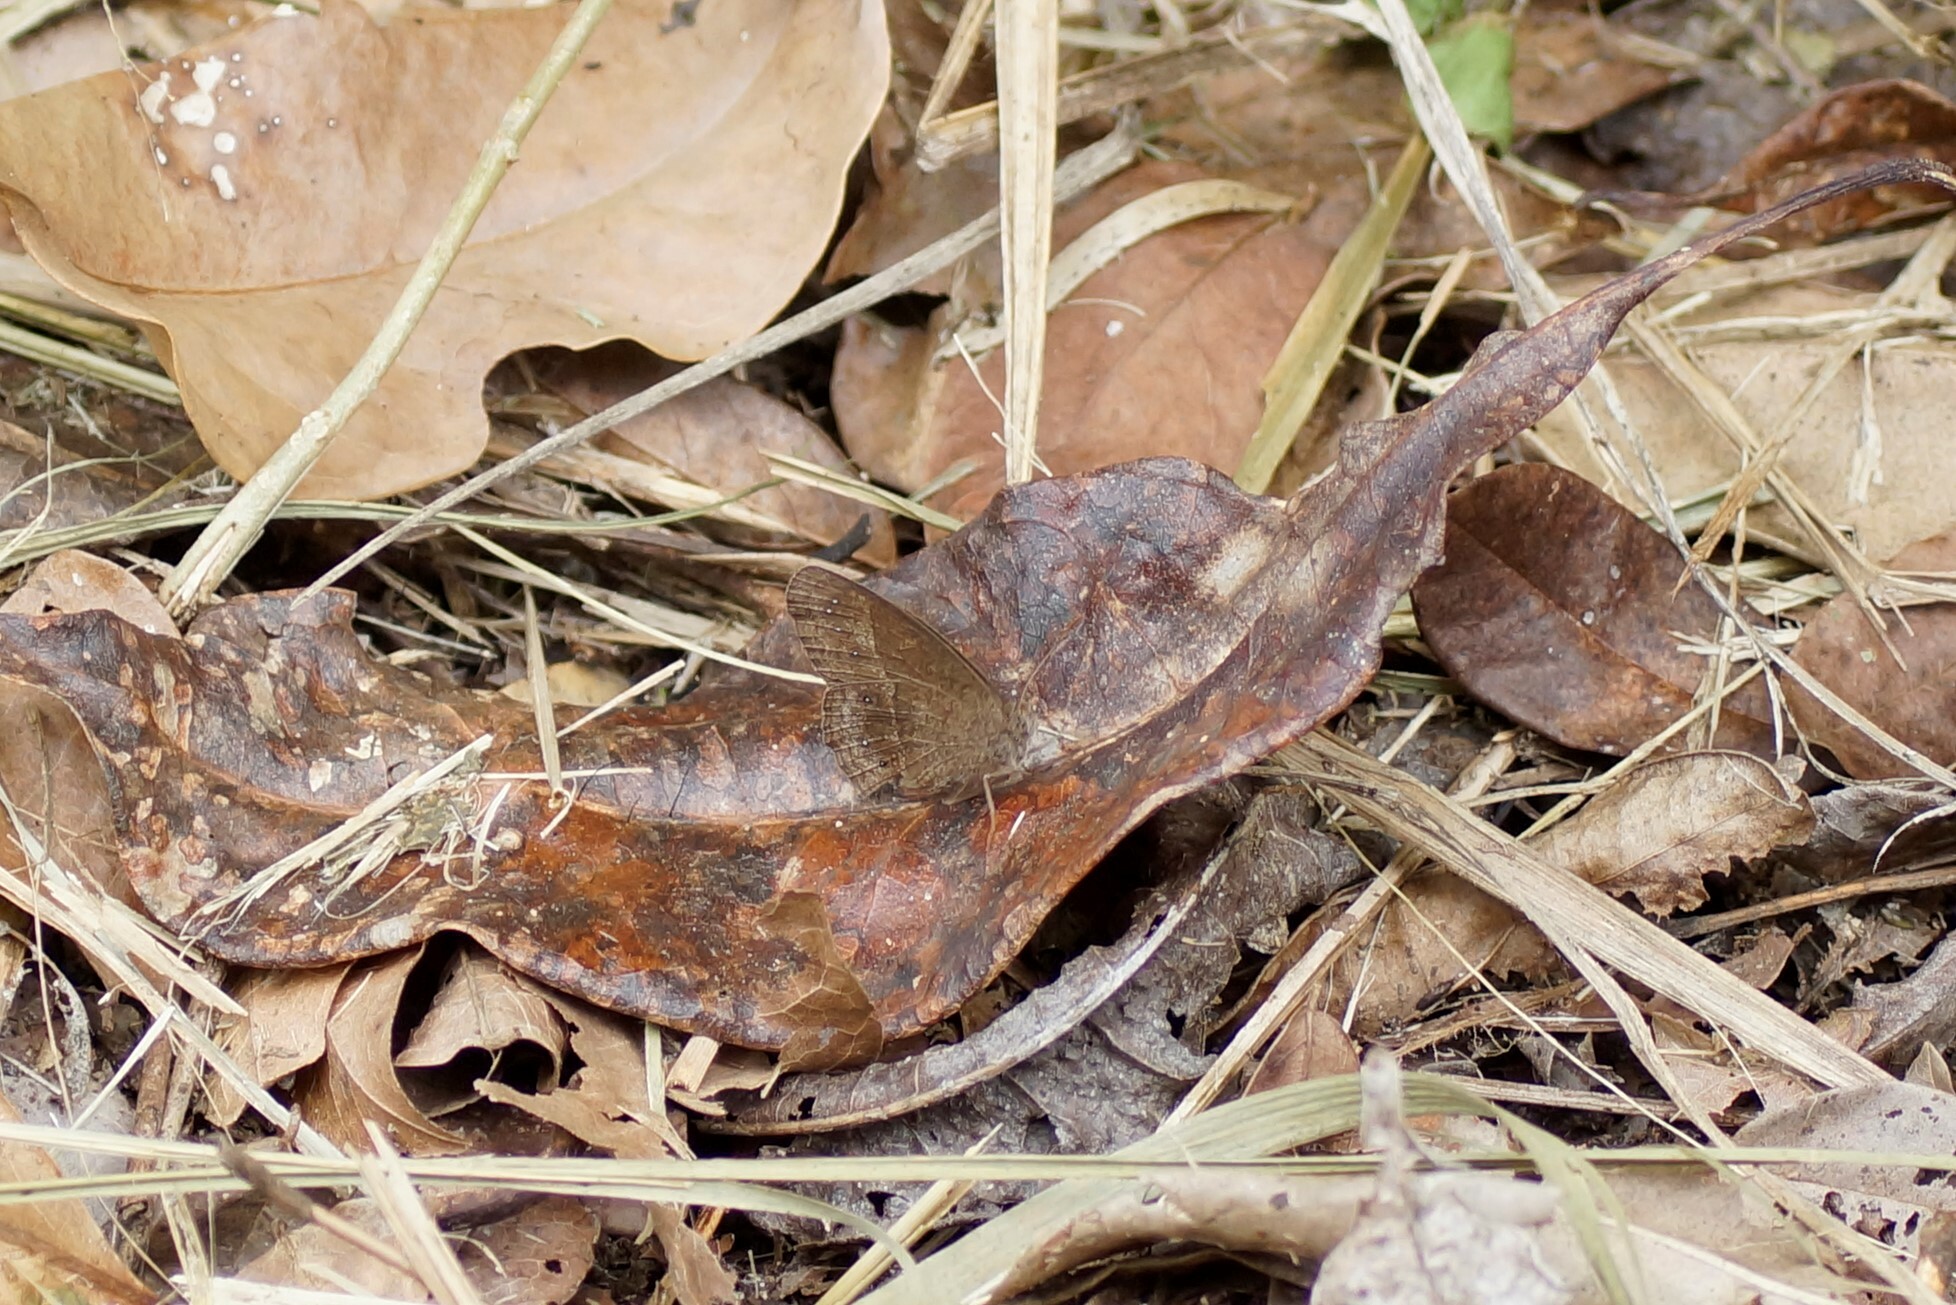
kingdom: Animalia
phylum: Arthropoda
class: Insecta
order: Lepidoptera
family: Nymphalidae
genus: Mycalesis
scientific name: Mycalesis perseus
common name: Dingy bushbrown
